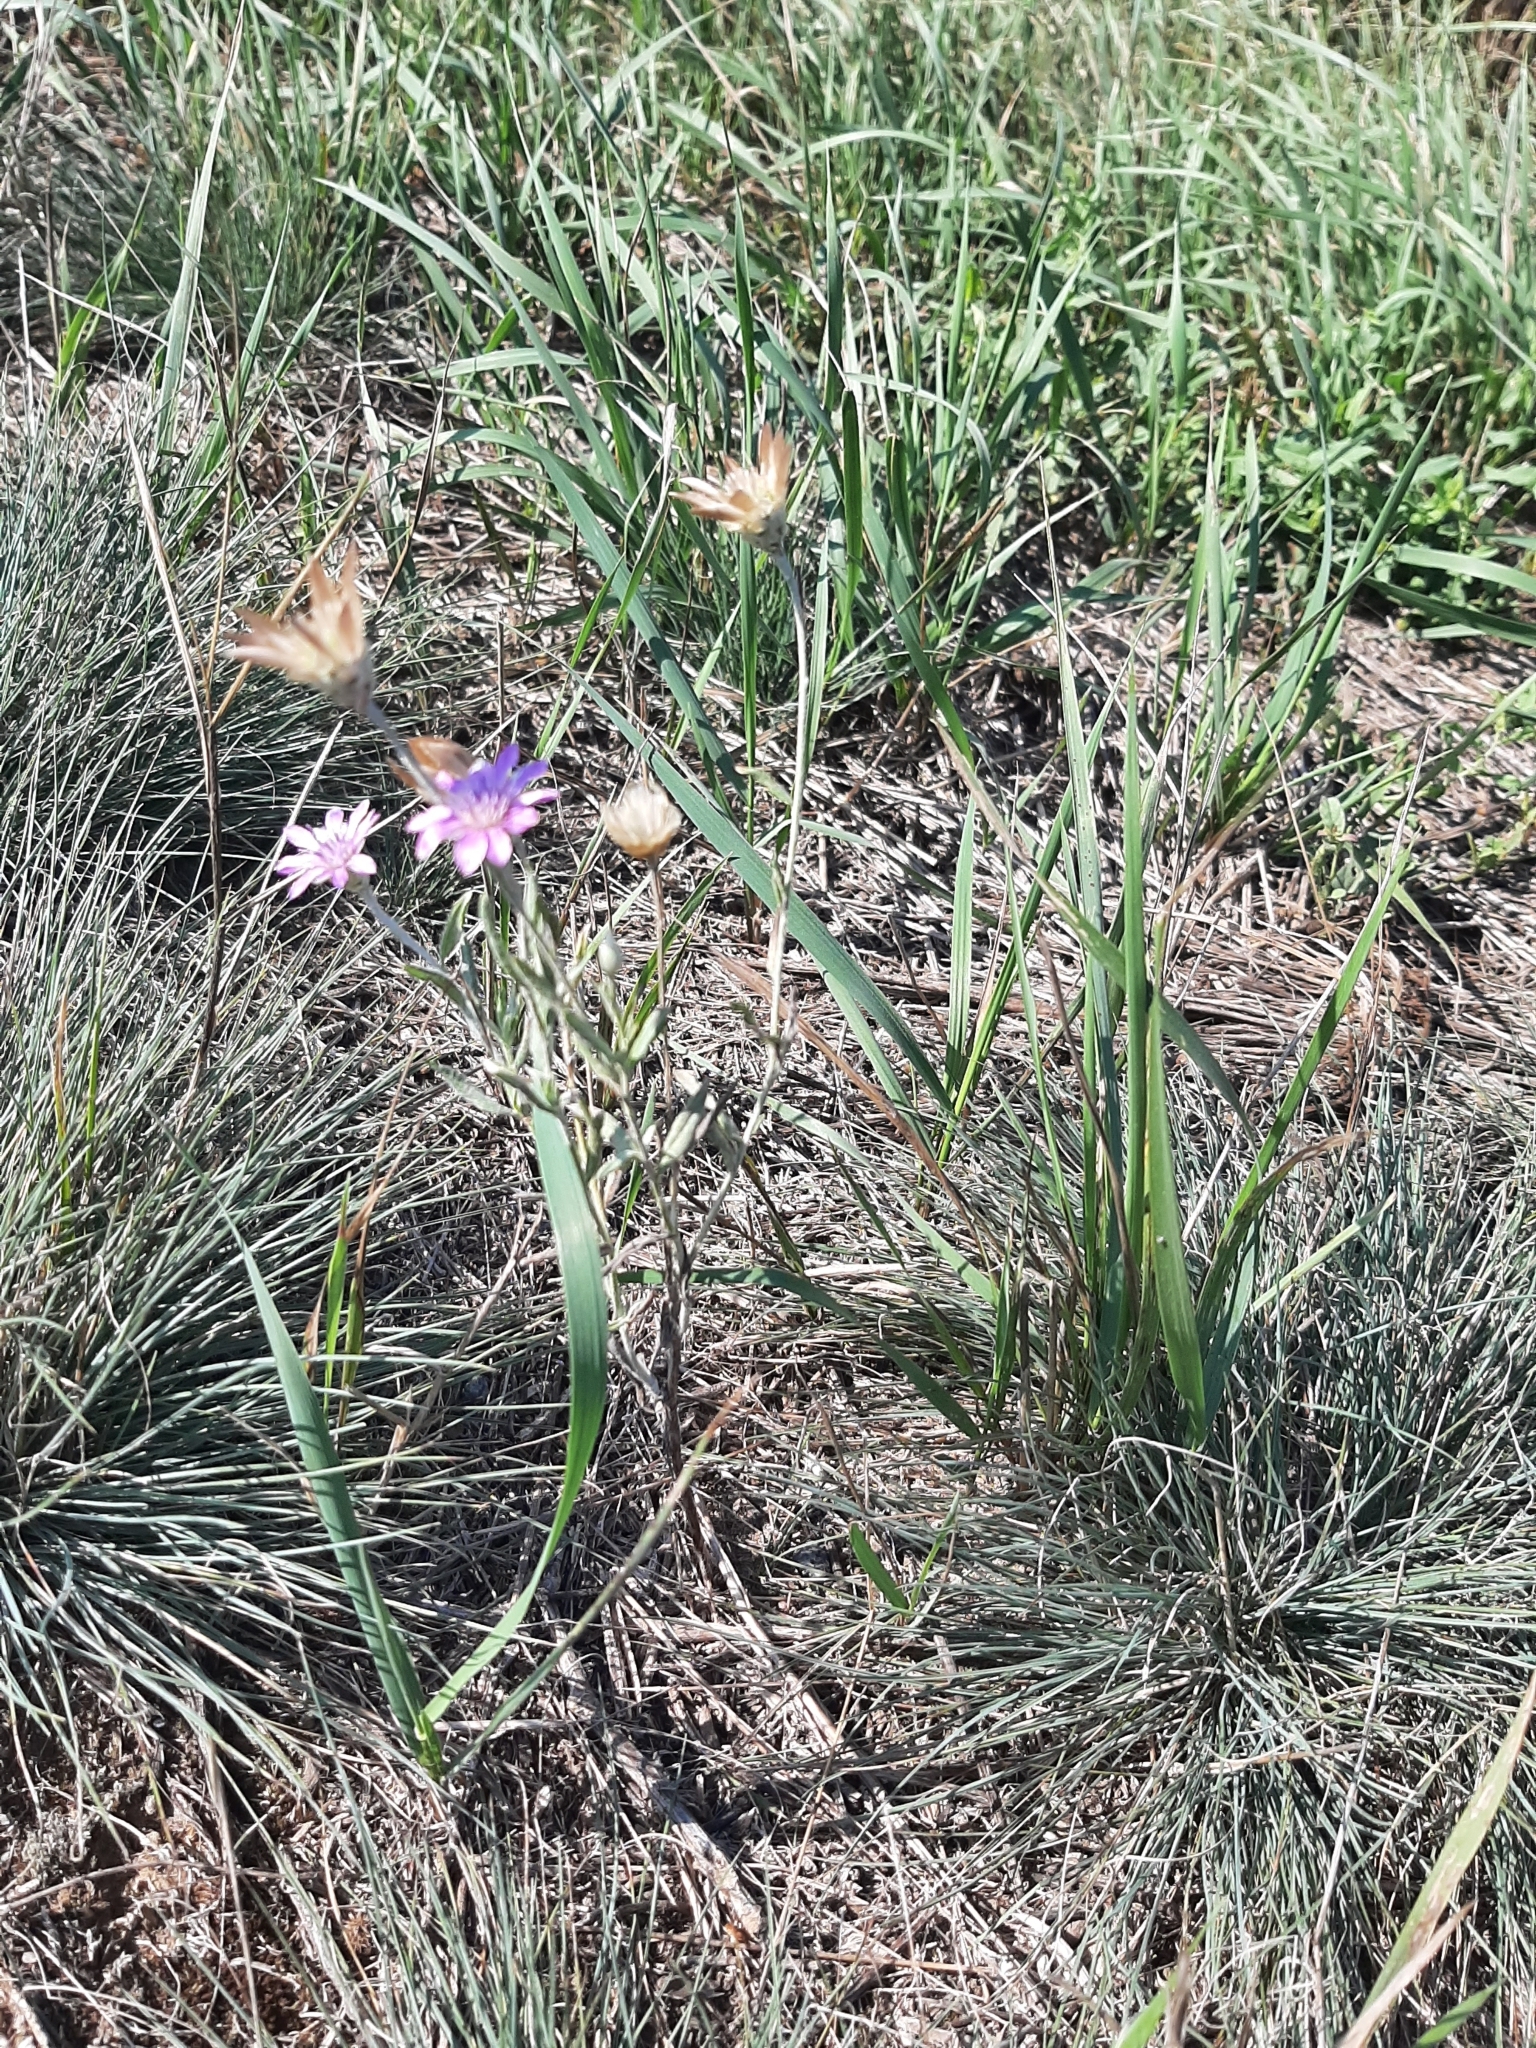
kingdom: Plantae
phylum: Tracheophyta
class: Magnoliopsida
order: Asterales
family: Asteraceae
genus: Xeranthemum
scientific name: Xeranthemum annuum
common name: Immortelle
